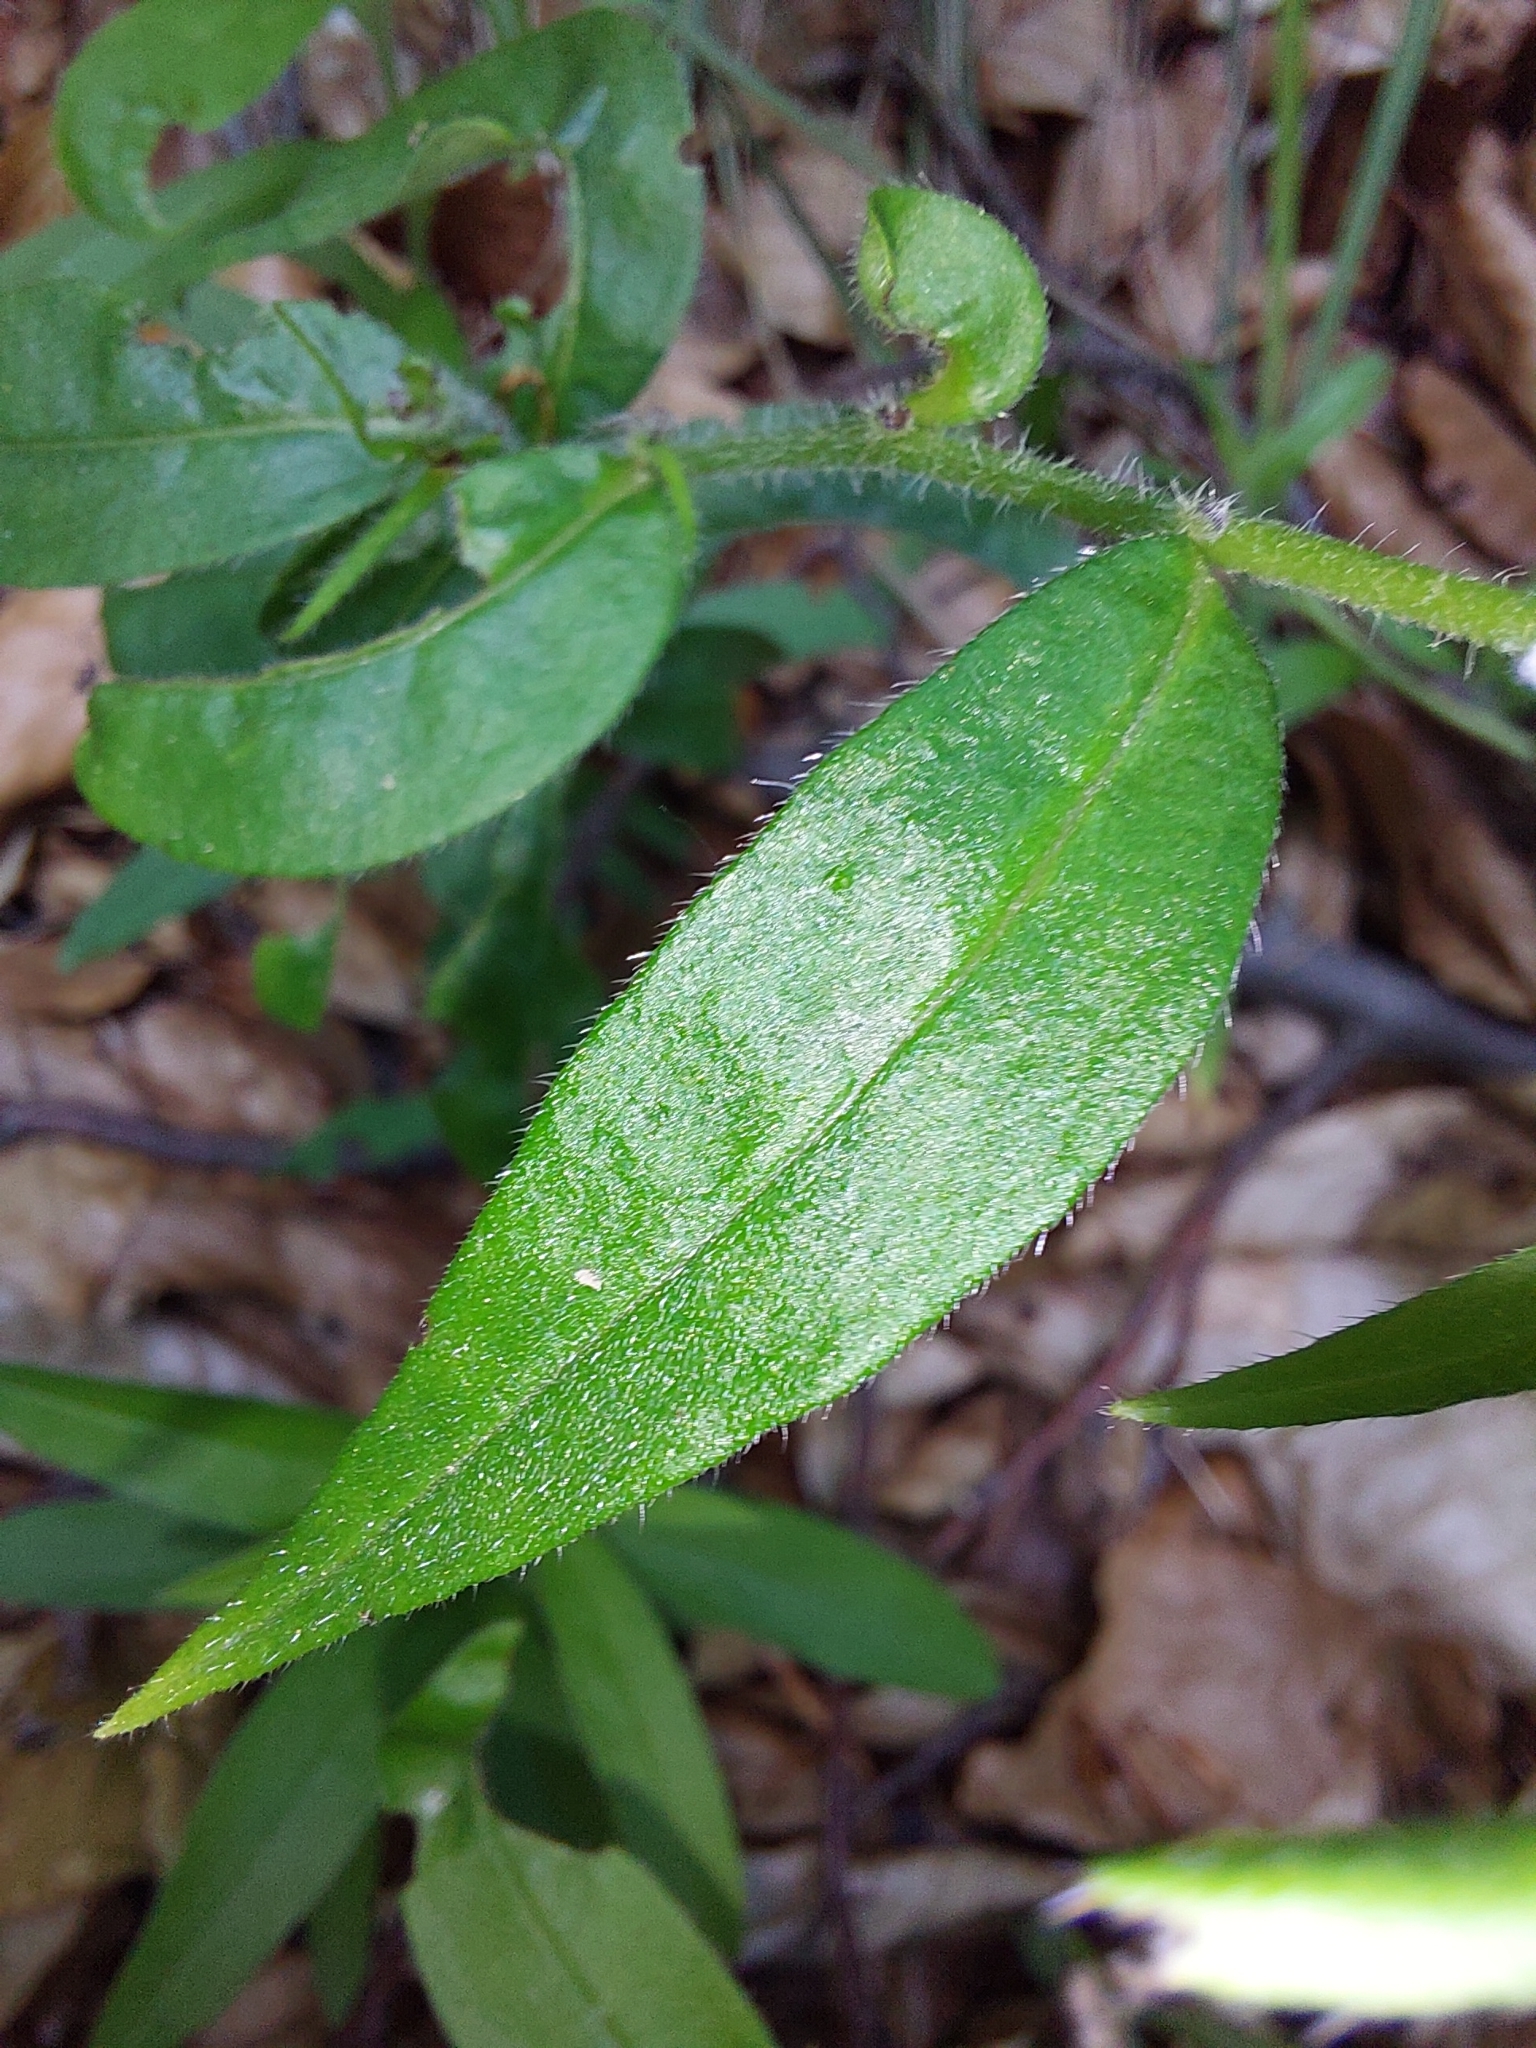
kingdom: Plantae
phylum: Tracheophyta
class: Magnoliopsida
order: Boraginales
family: Boraginaceae
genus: Aegonychon
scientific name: Aegonychon purpurocaeruleum
